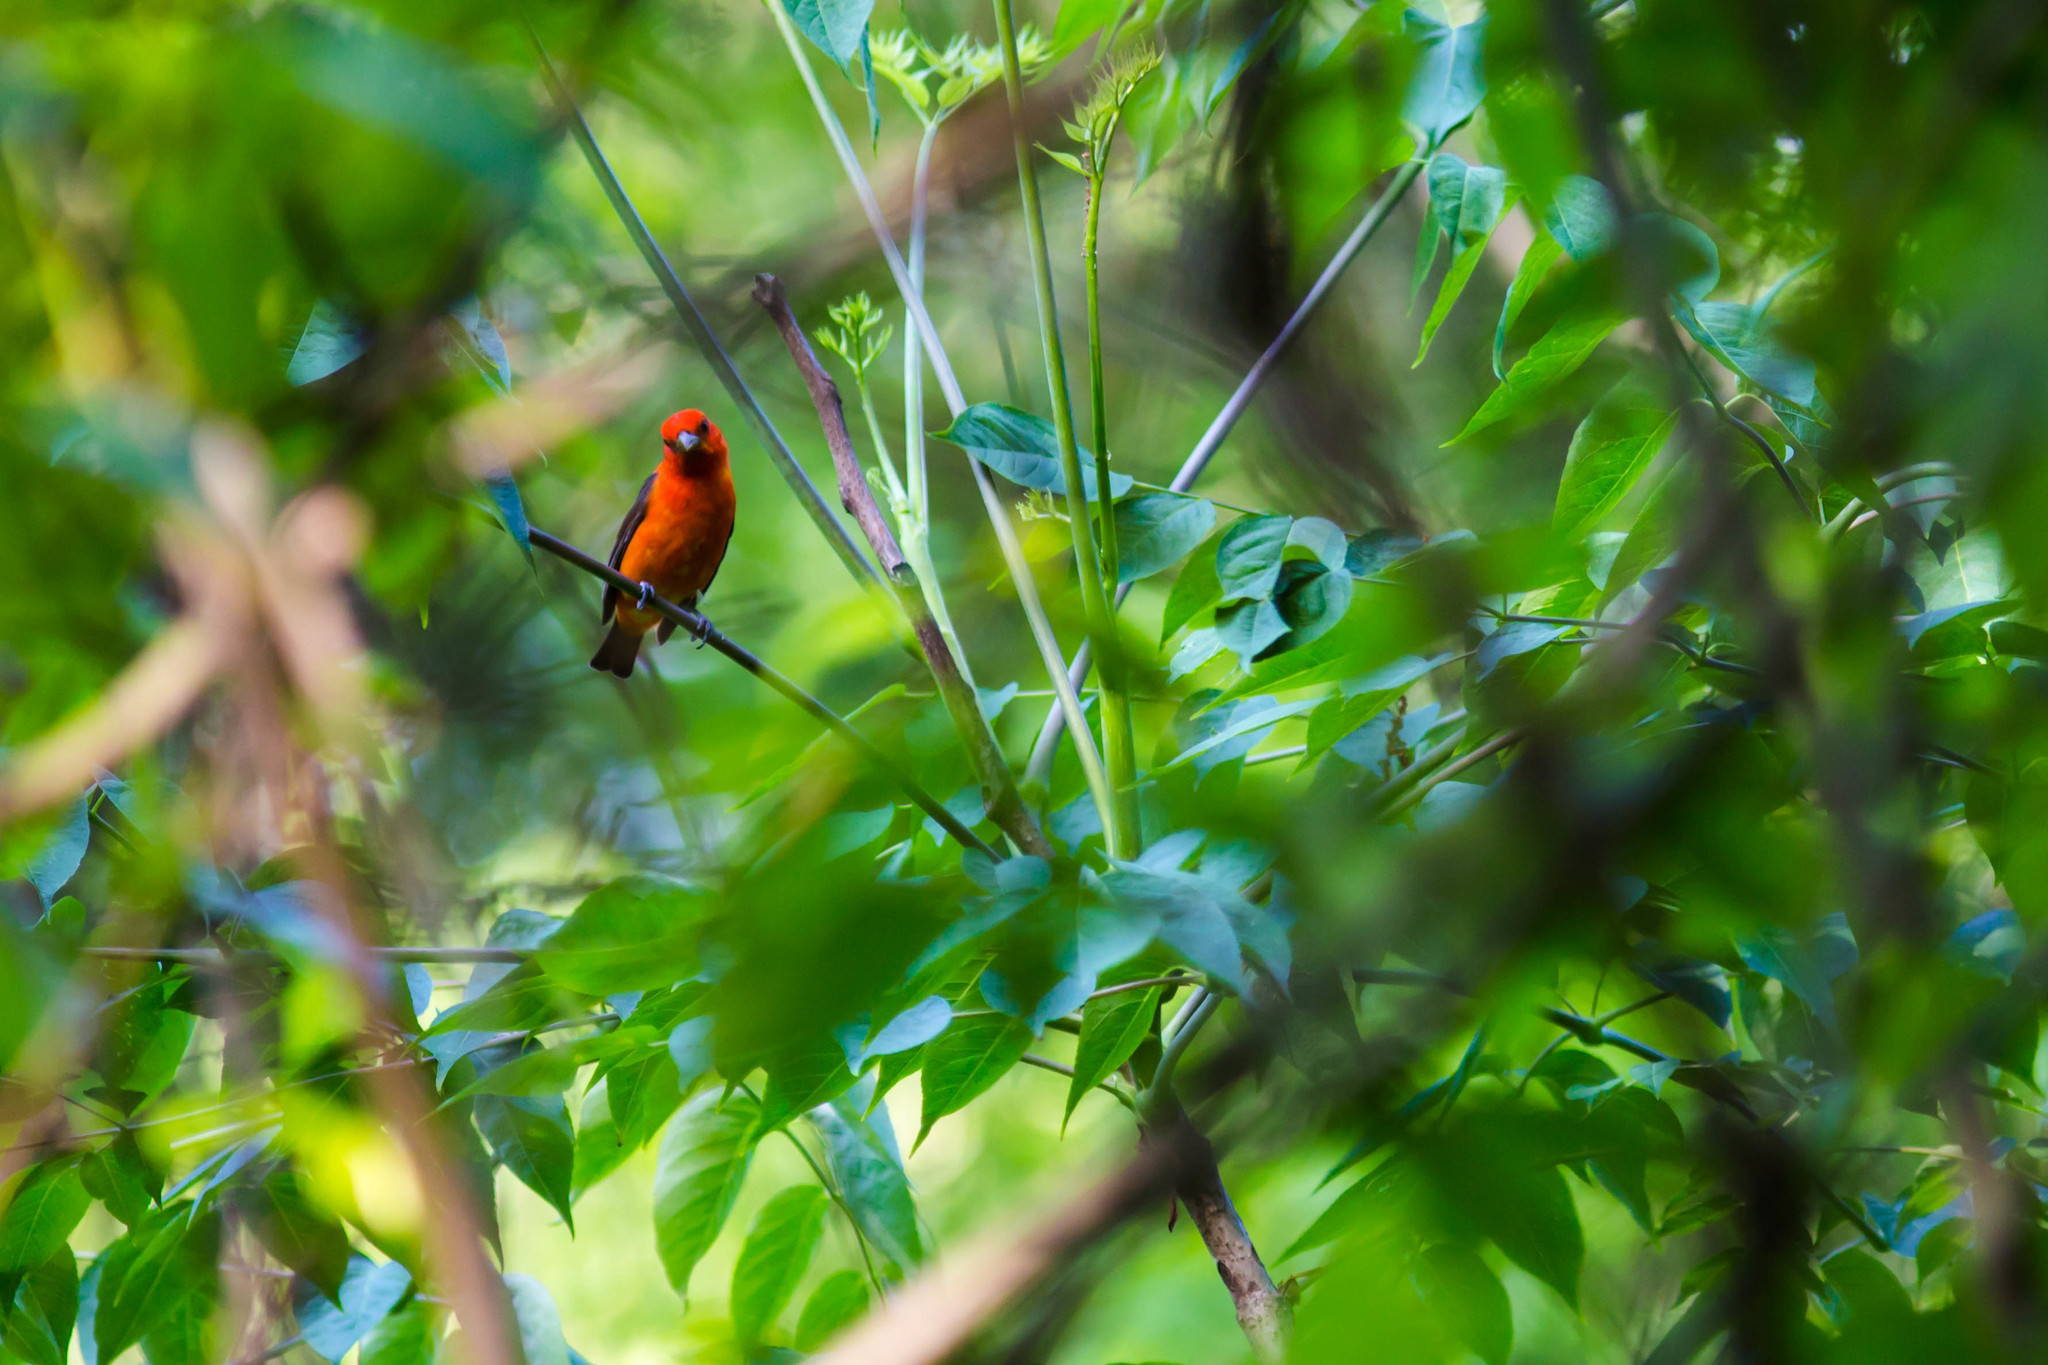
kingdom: Animalia
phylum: Chordata
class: Aves
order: Passeriformes
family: Cardinalidae
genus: Piranga
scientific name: Piranga olivacea
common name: Scarlet tanager
